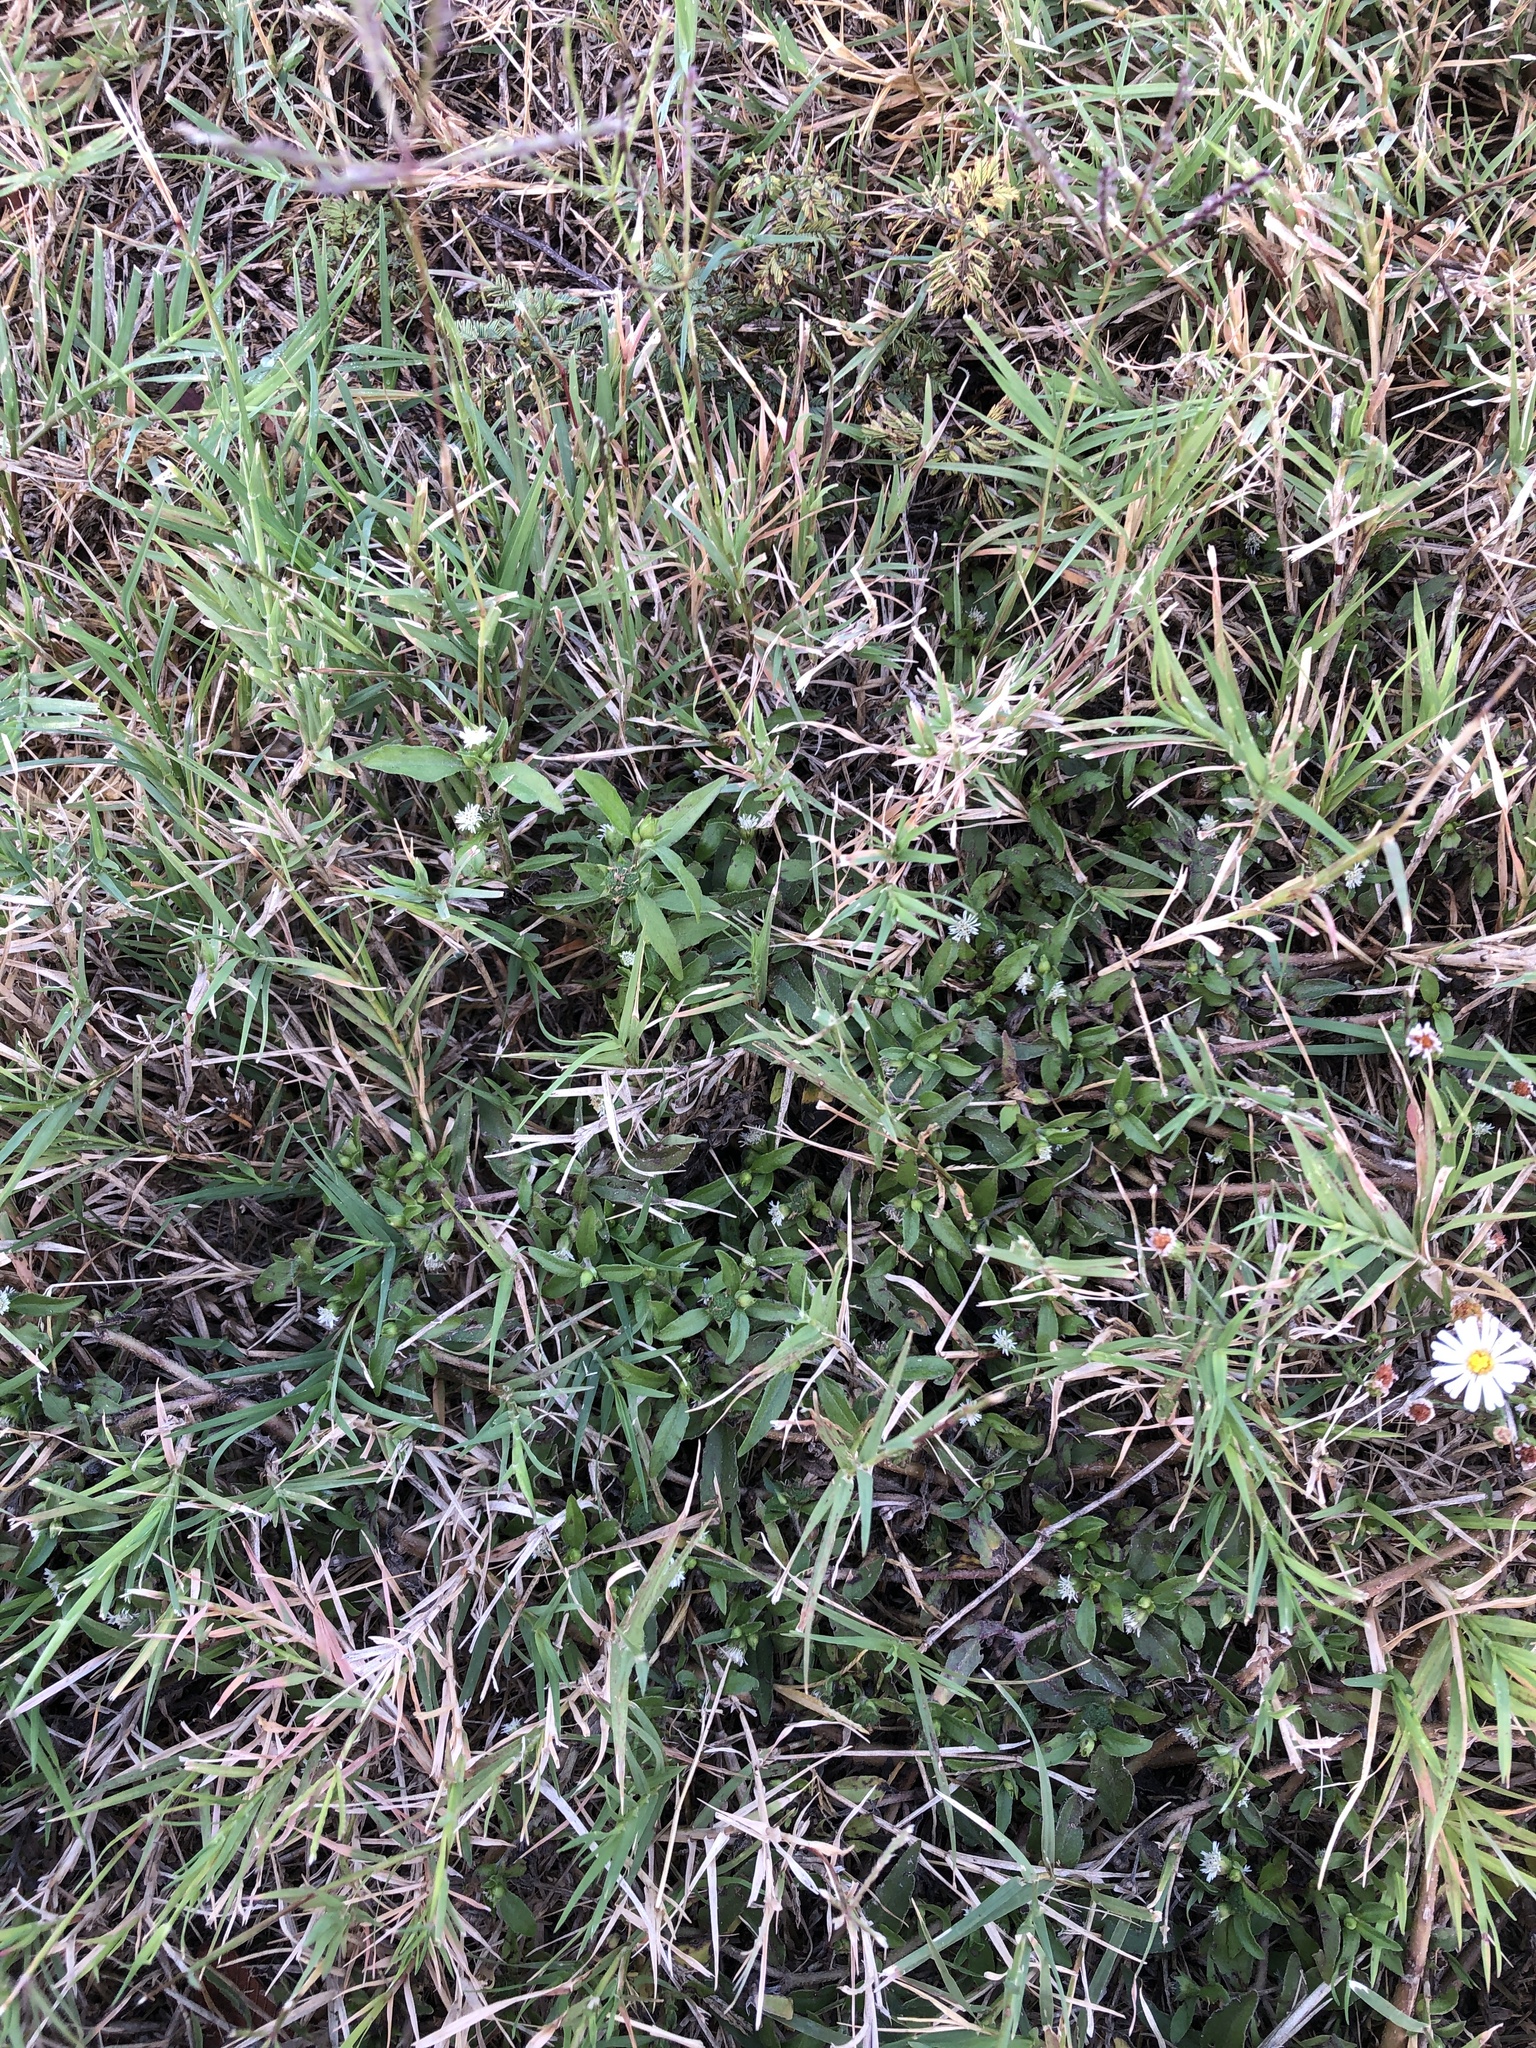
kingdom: Plantae
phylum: Tracheophyta
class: Magnoliopsida
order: Asterales
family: Asteraceae
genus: Eclipta
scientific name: Eclipta prostrata
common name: False daisy
